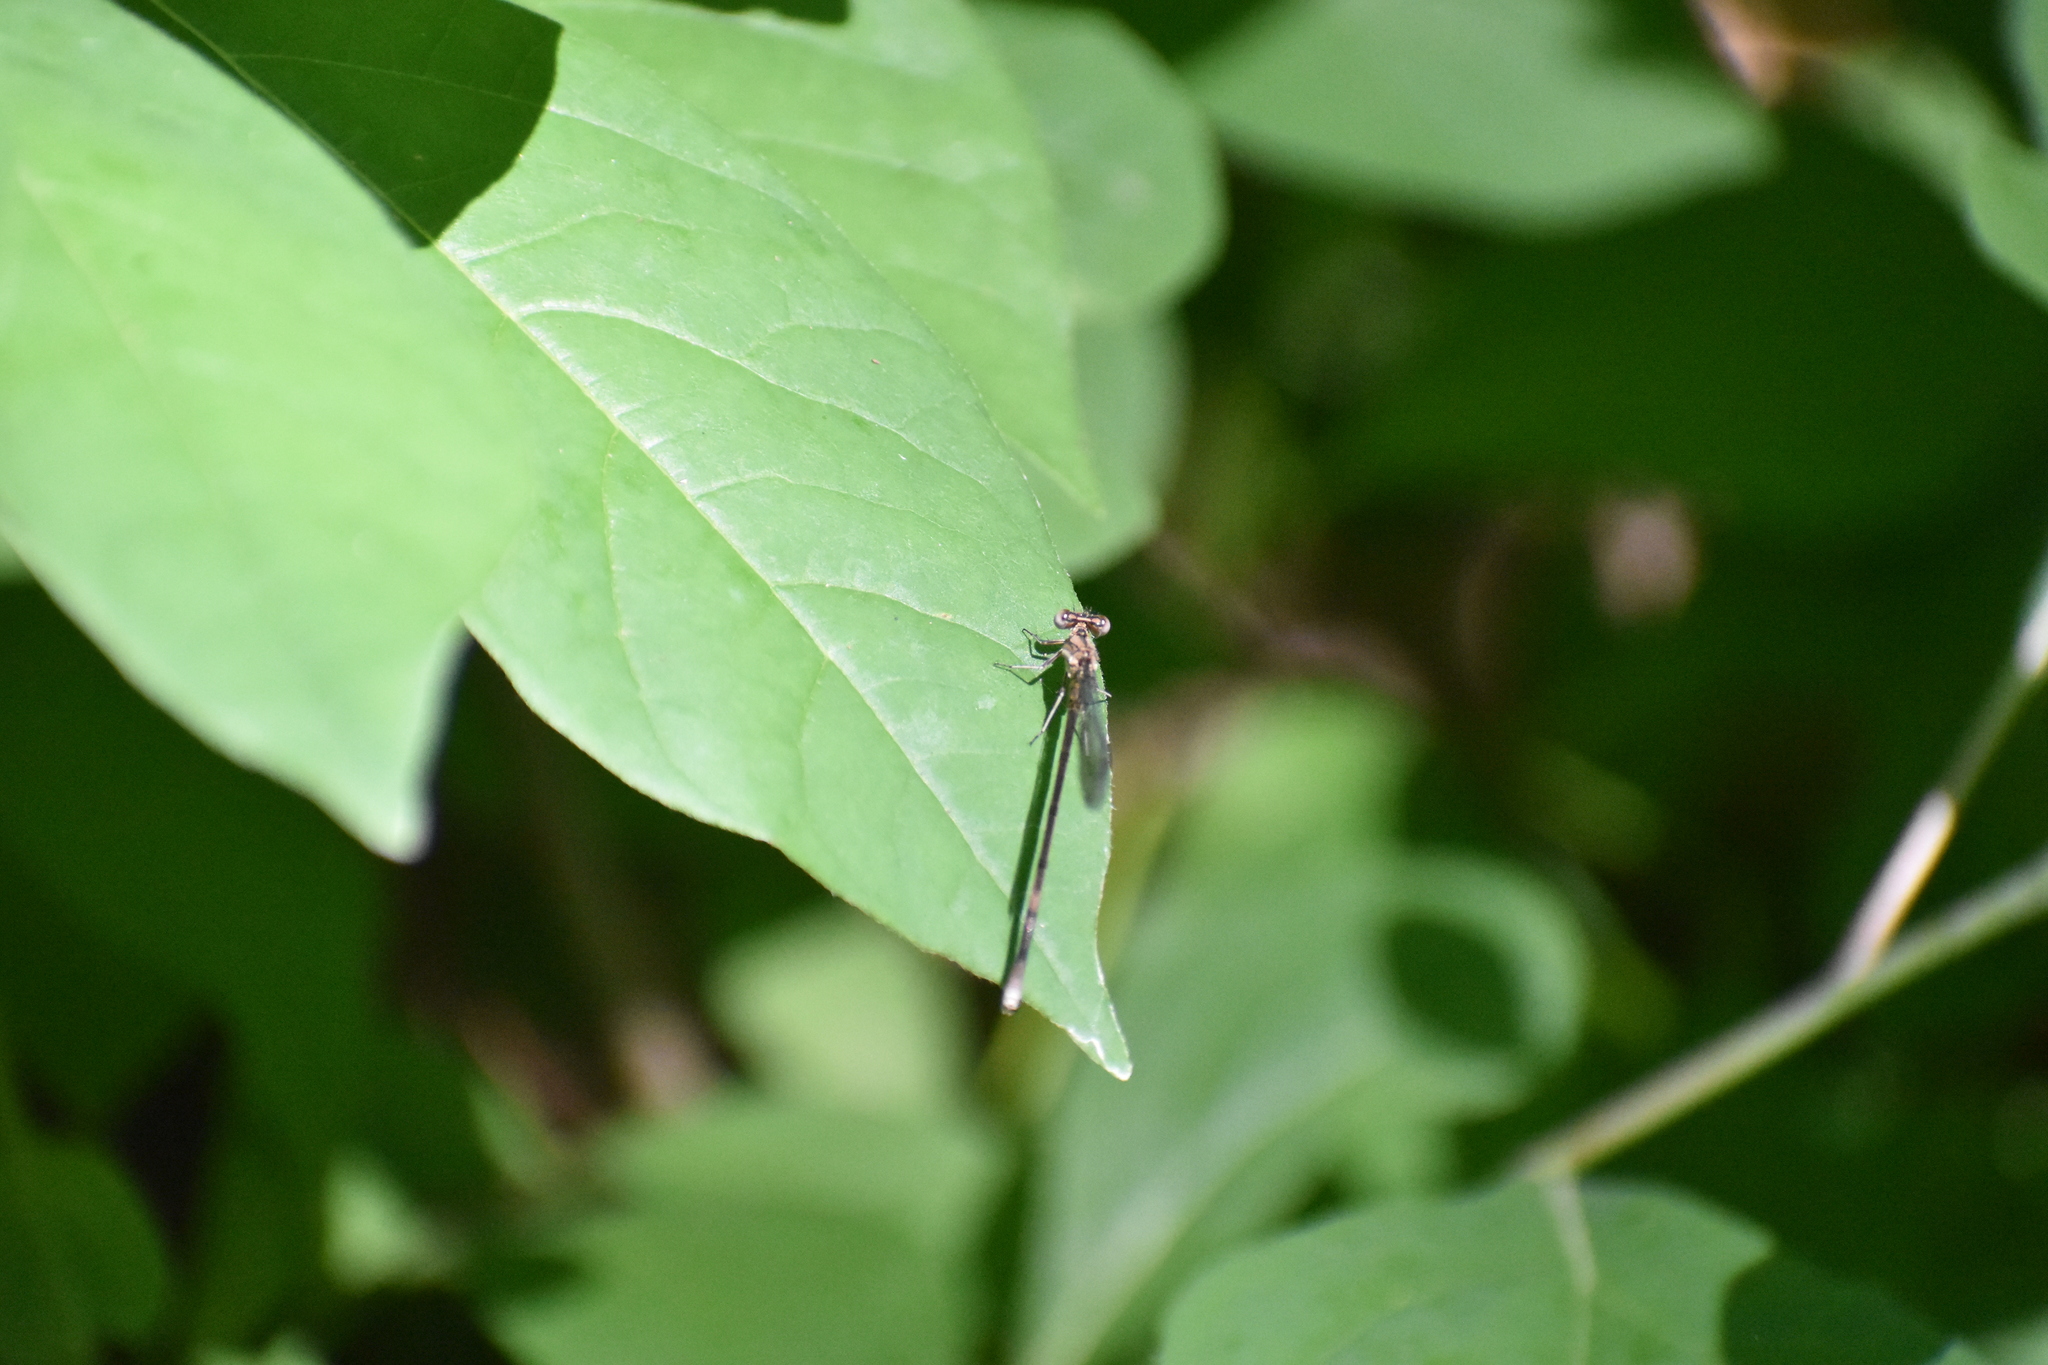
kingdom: Animalia
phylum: Arthropoda
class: Insecta
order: Odonata
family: Coenagrionidae
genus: Argia
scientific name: Argia fumipennis
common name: Variable dancer
